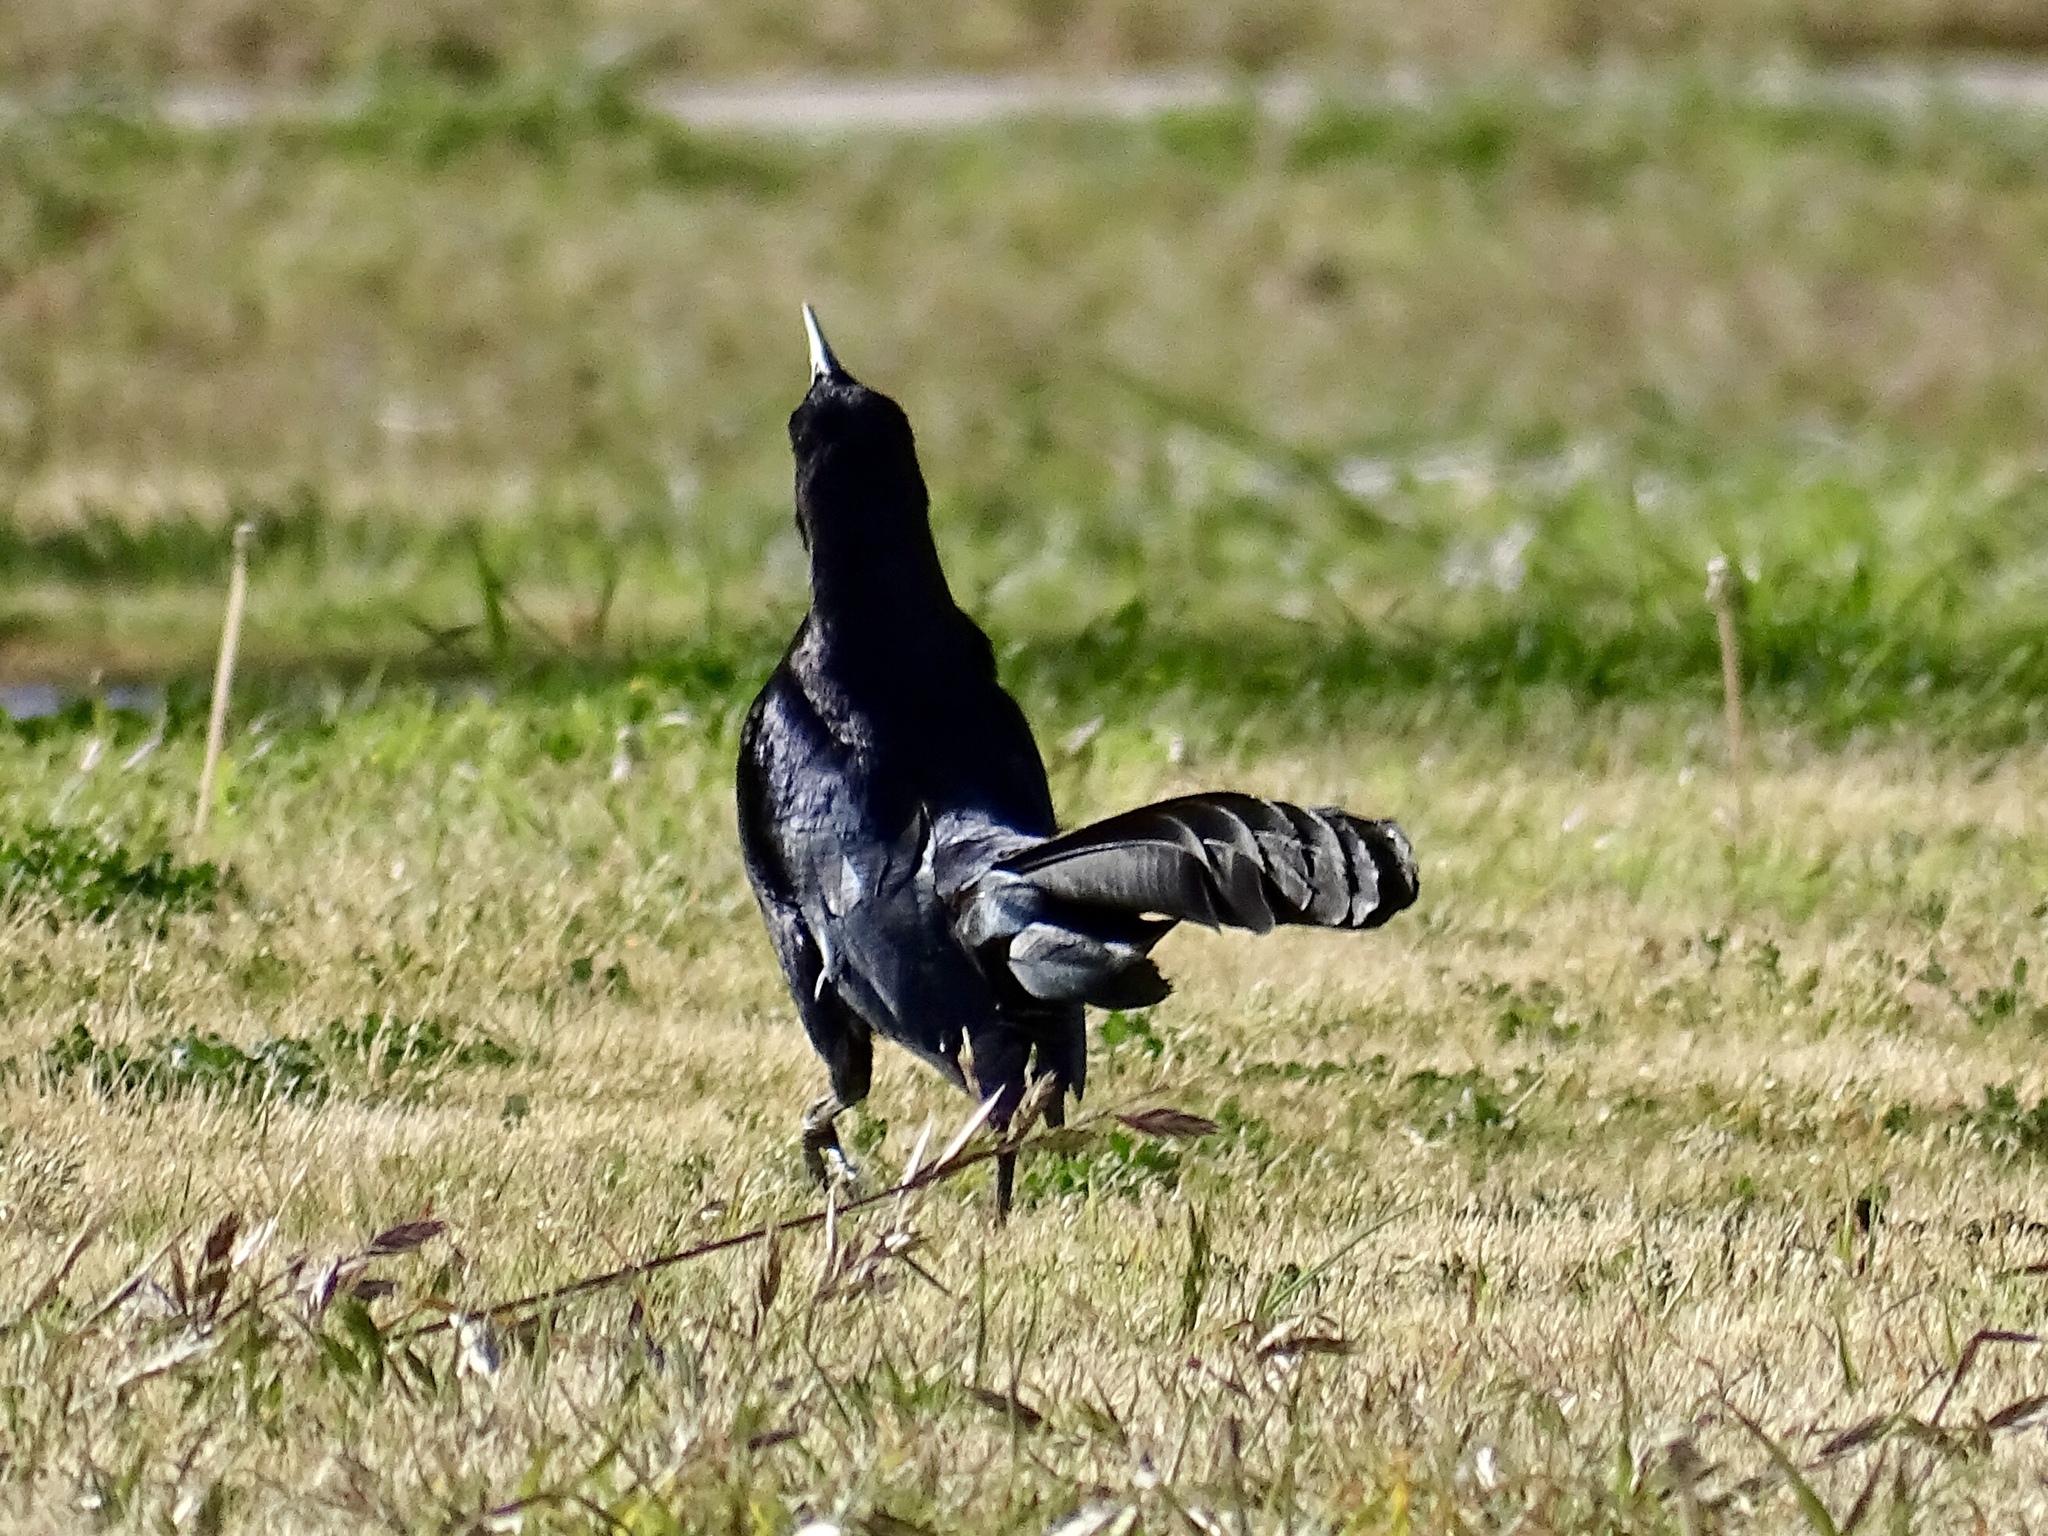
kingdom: Animalia
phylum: Chordata
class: Aves
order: Passeriformes
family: Icteridae
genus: Quiscalus
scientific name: Quiscalus mexicanus
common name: Great-tailed grackle
